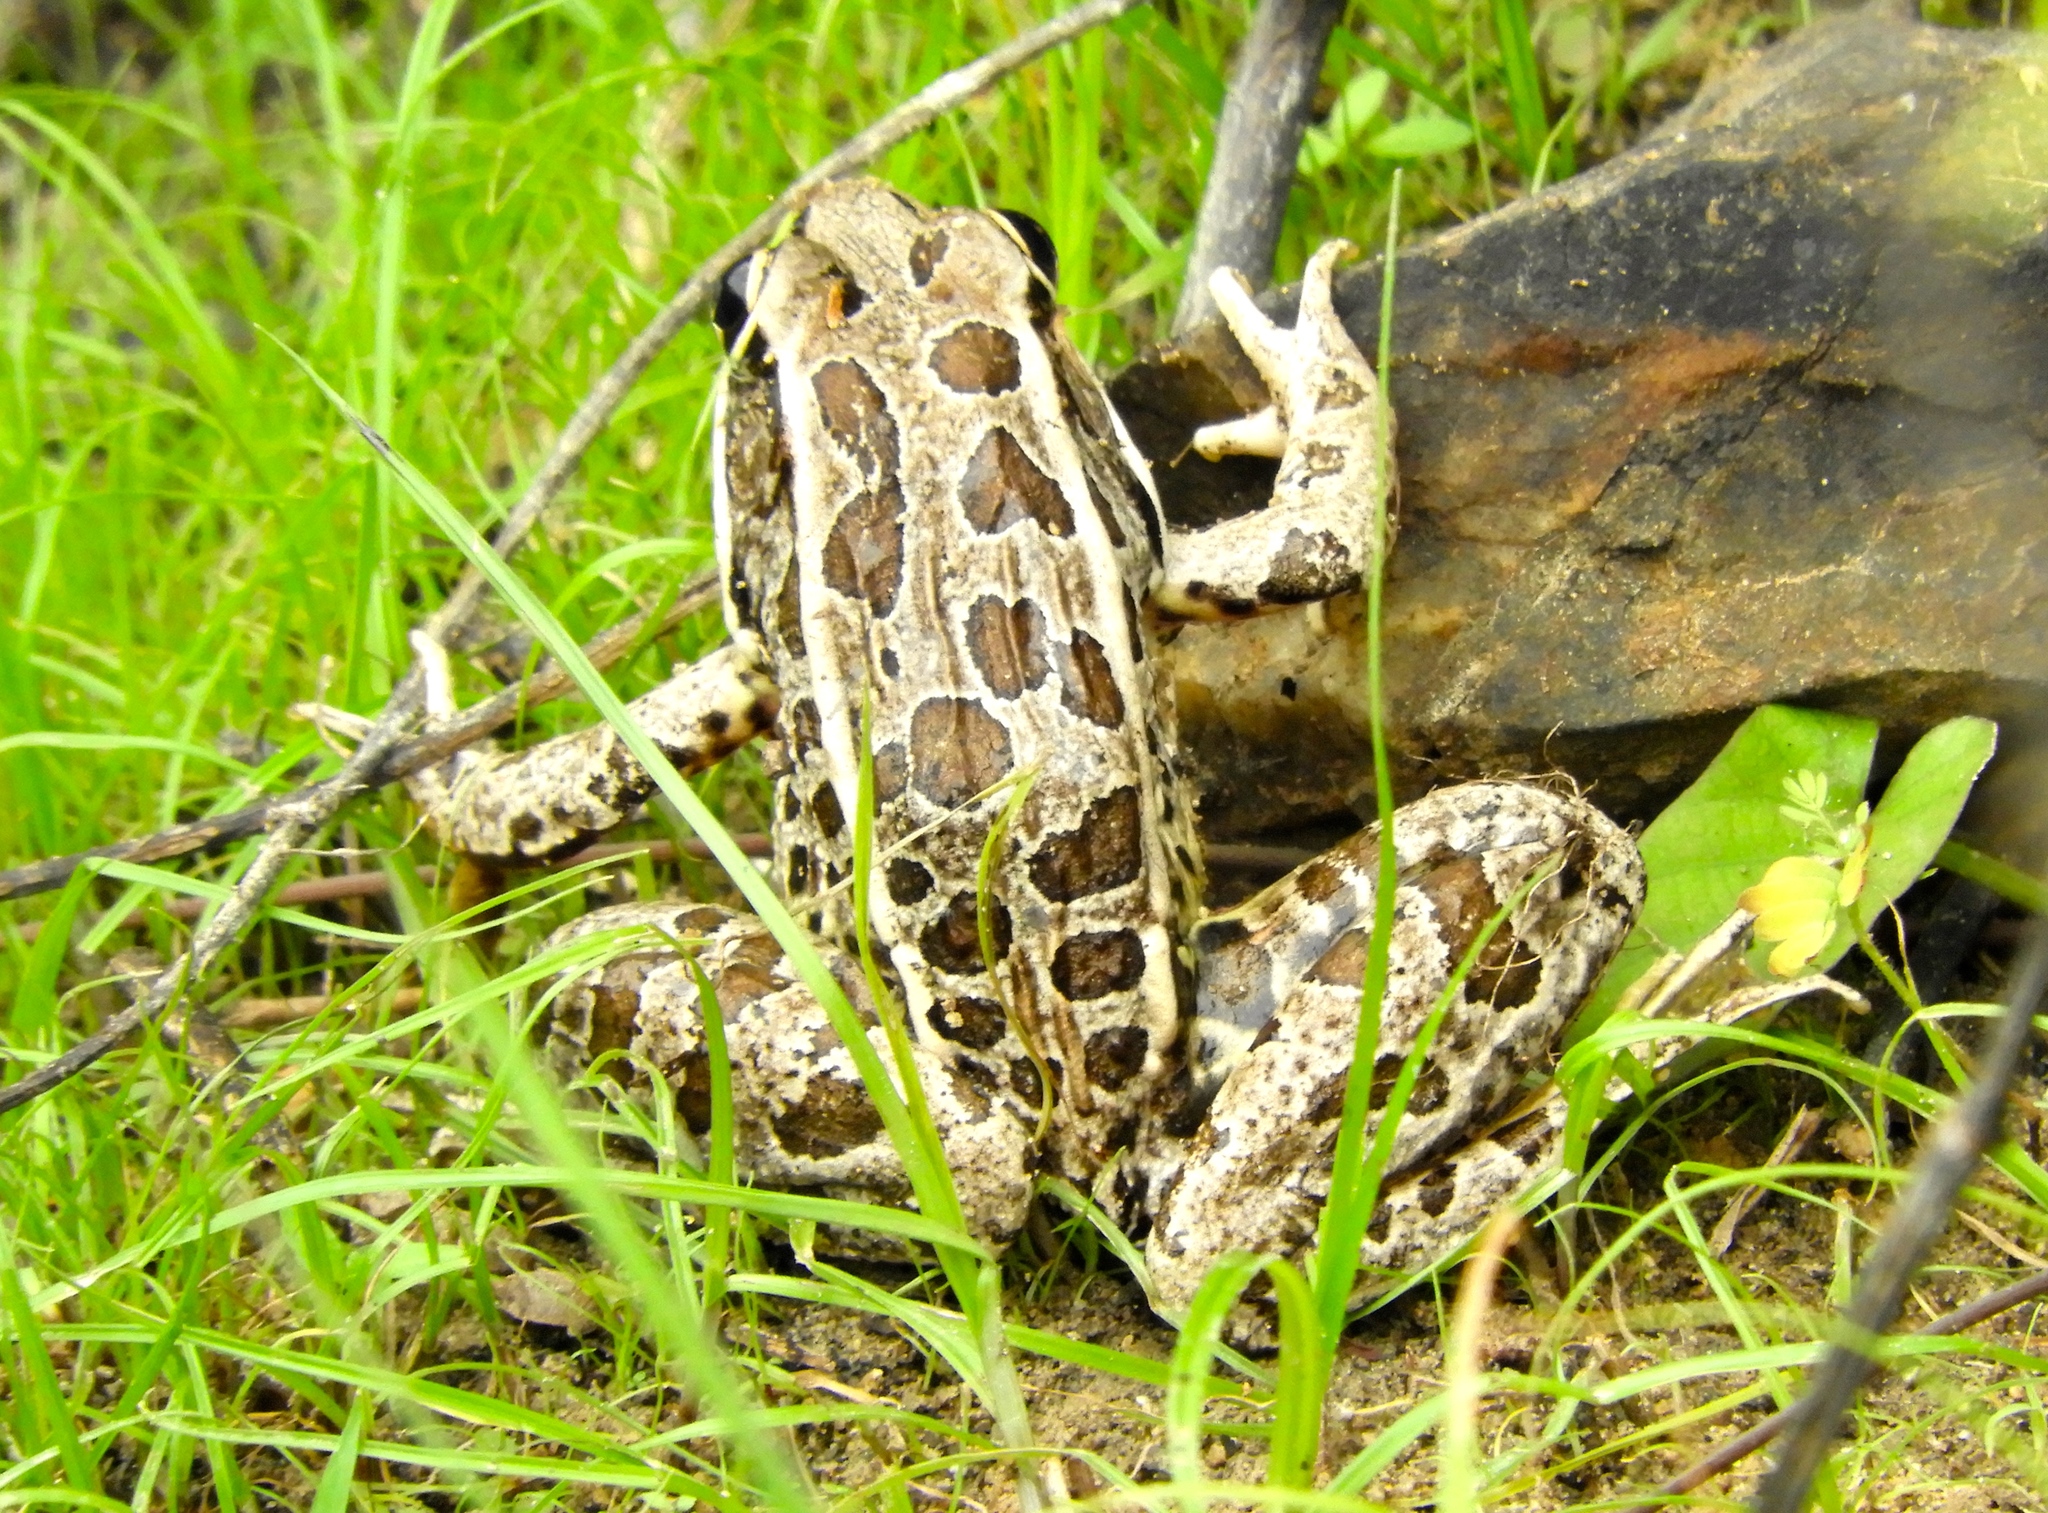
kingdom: Animalia
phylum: Chordata
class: Amphibia
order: Anura
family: Ranidae
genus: Lithobates
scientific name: Lithobates forreri
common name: Forrer's grass frog
